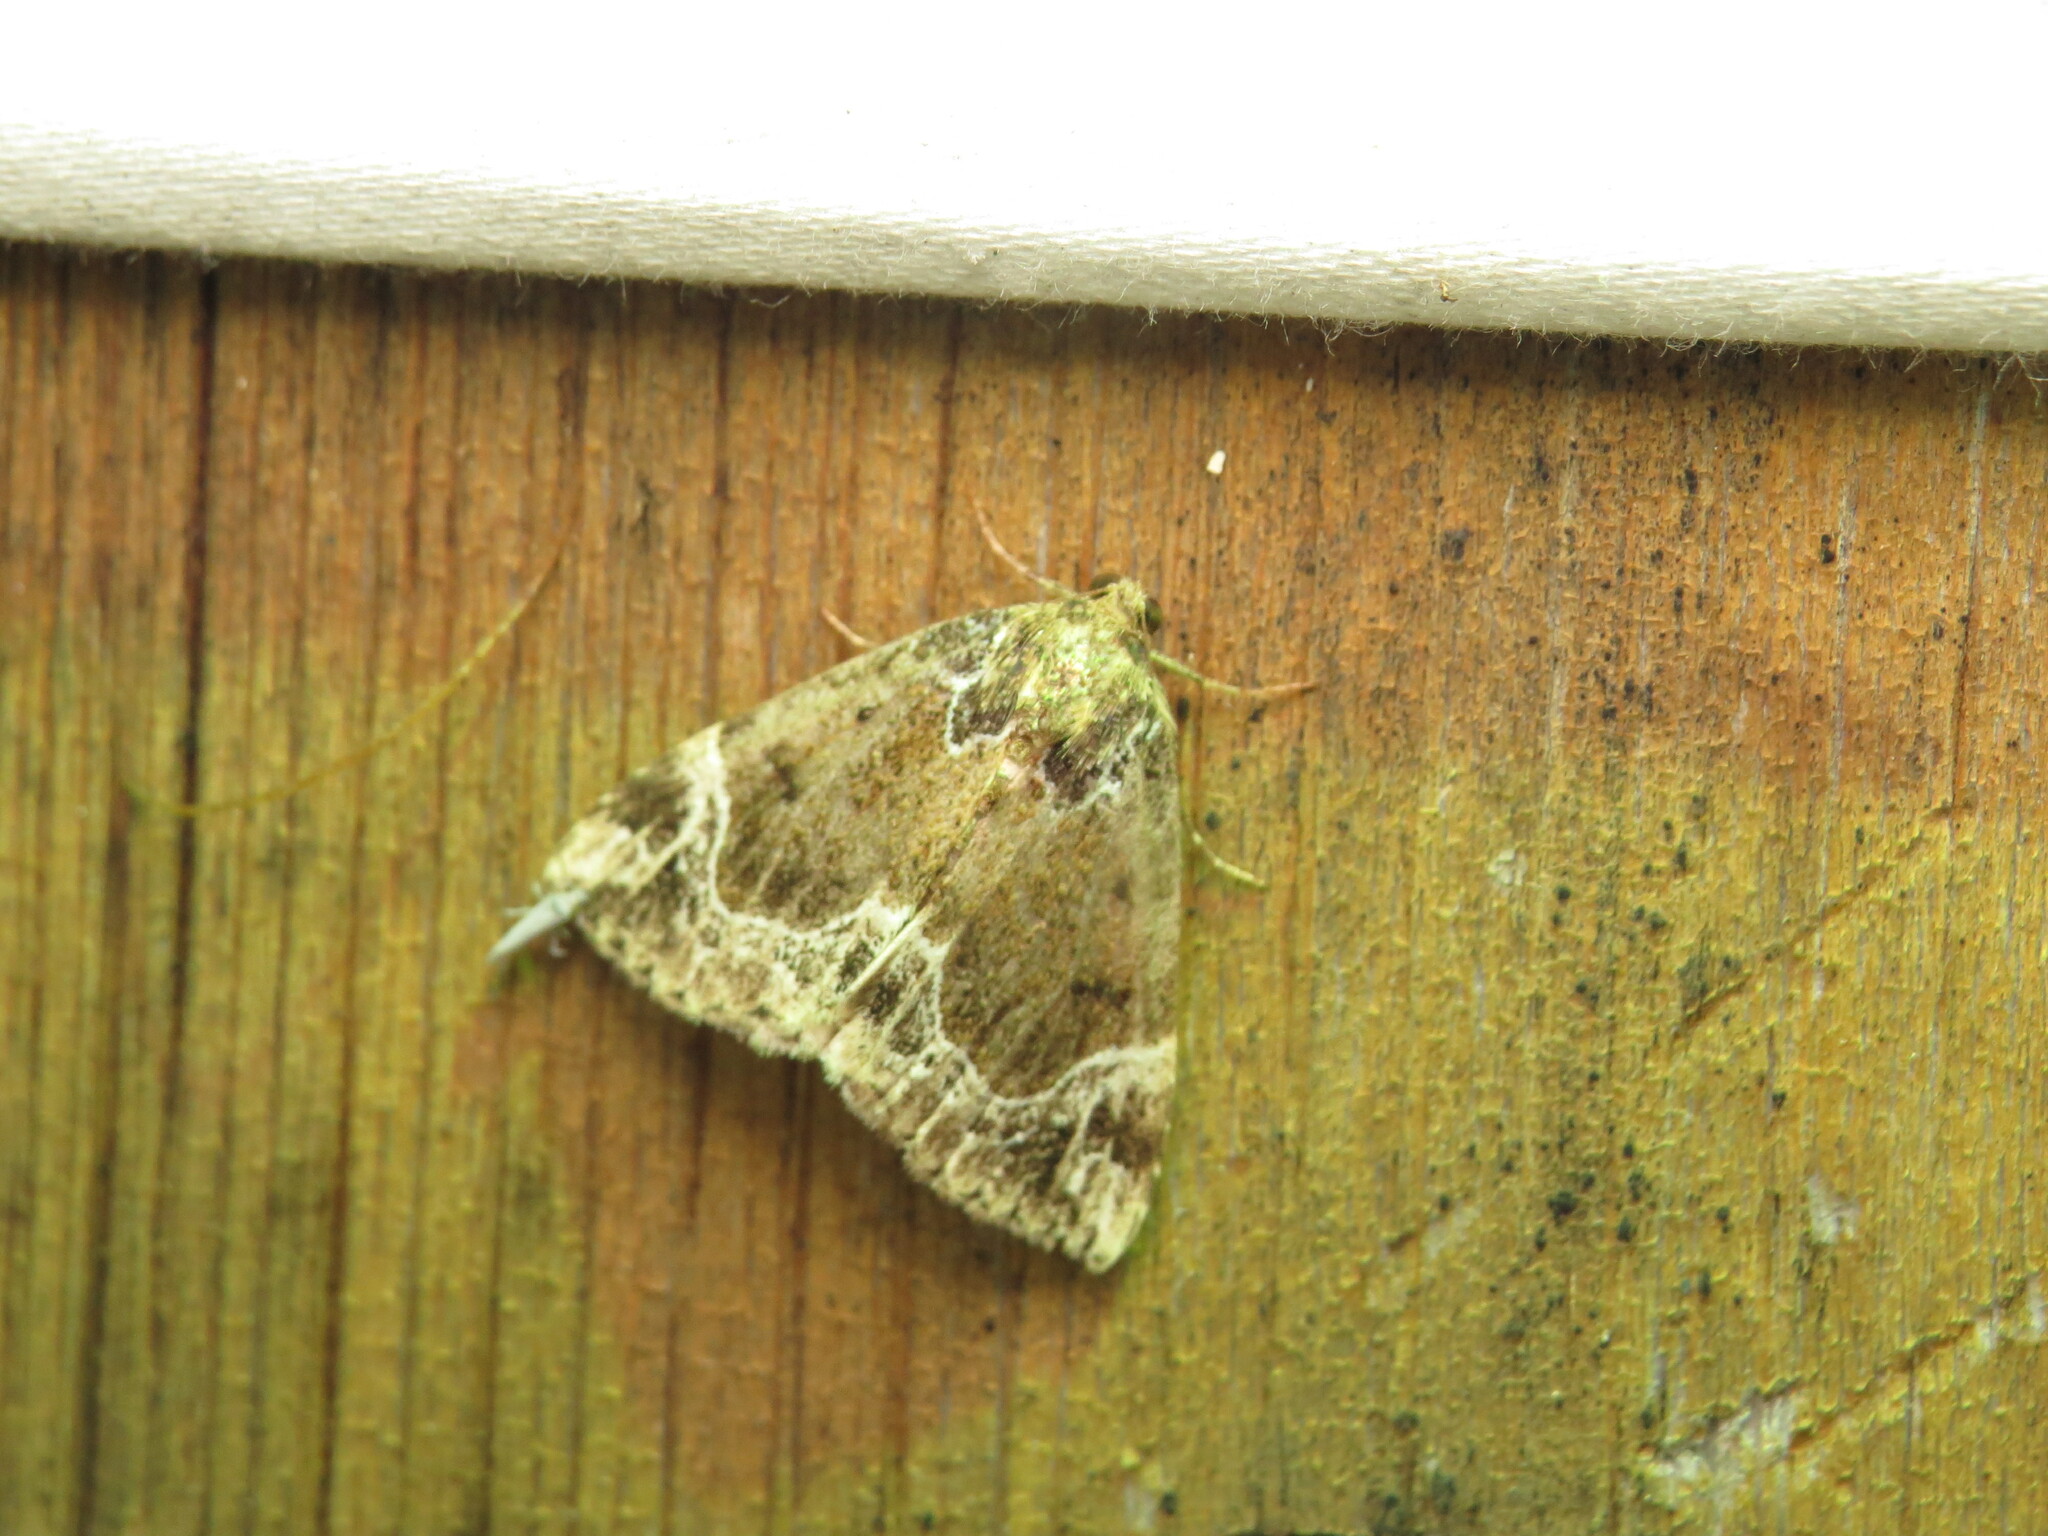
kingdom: Animalia
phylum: Arthropoda
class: Insecta
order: Lepidoptera
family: Erebidae
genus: Hypena
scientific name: Hypena abalienalis
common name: White-lined snout
